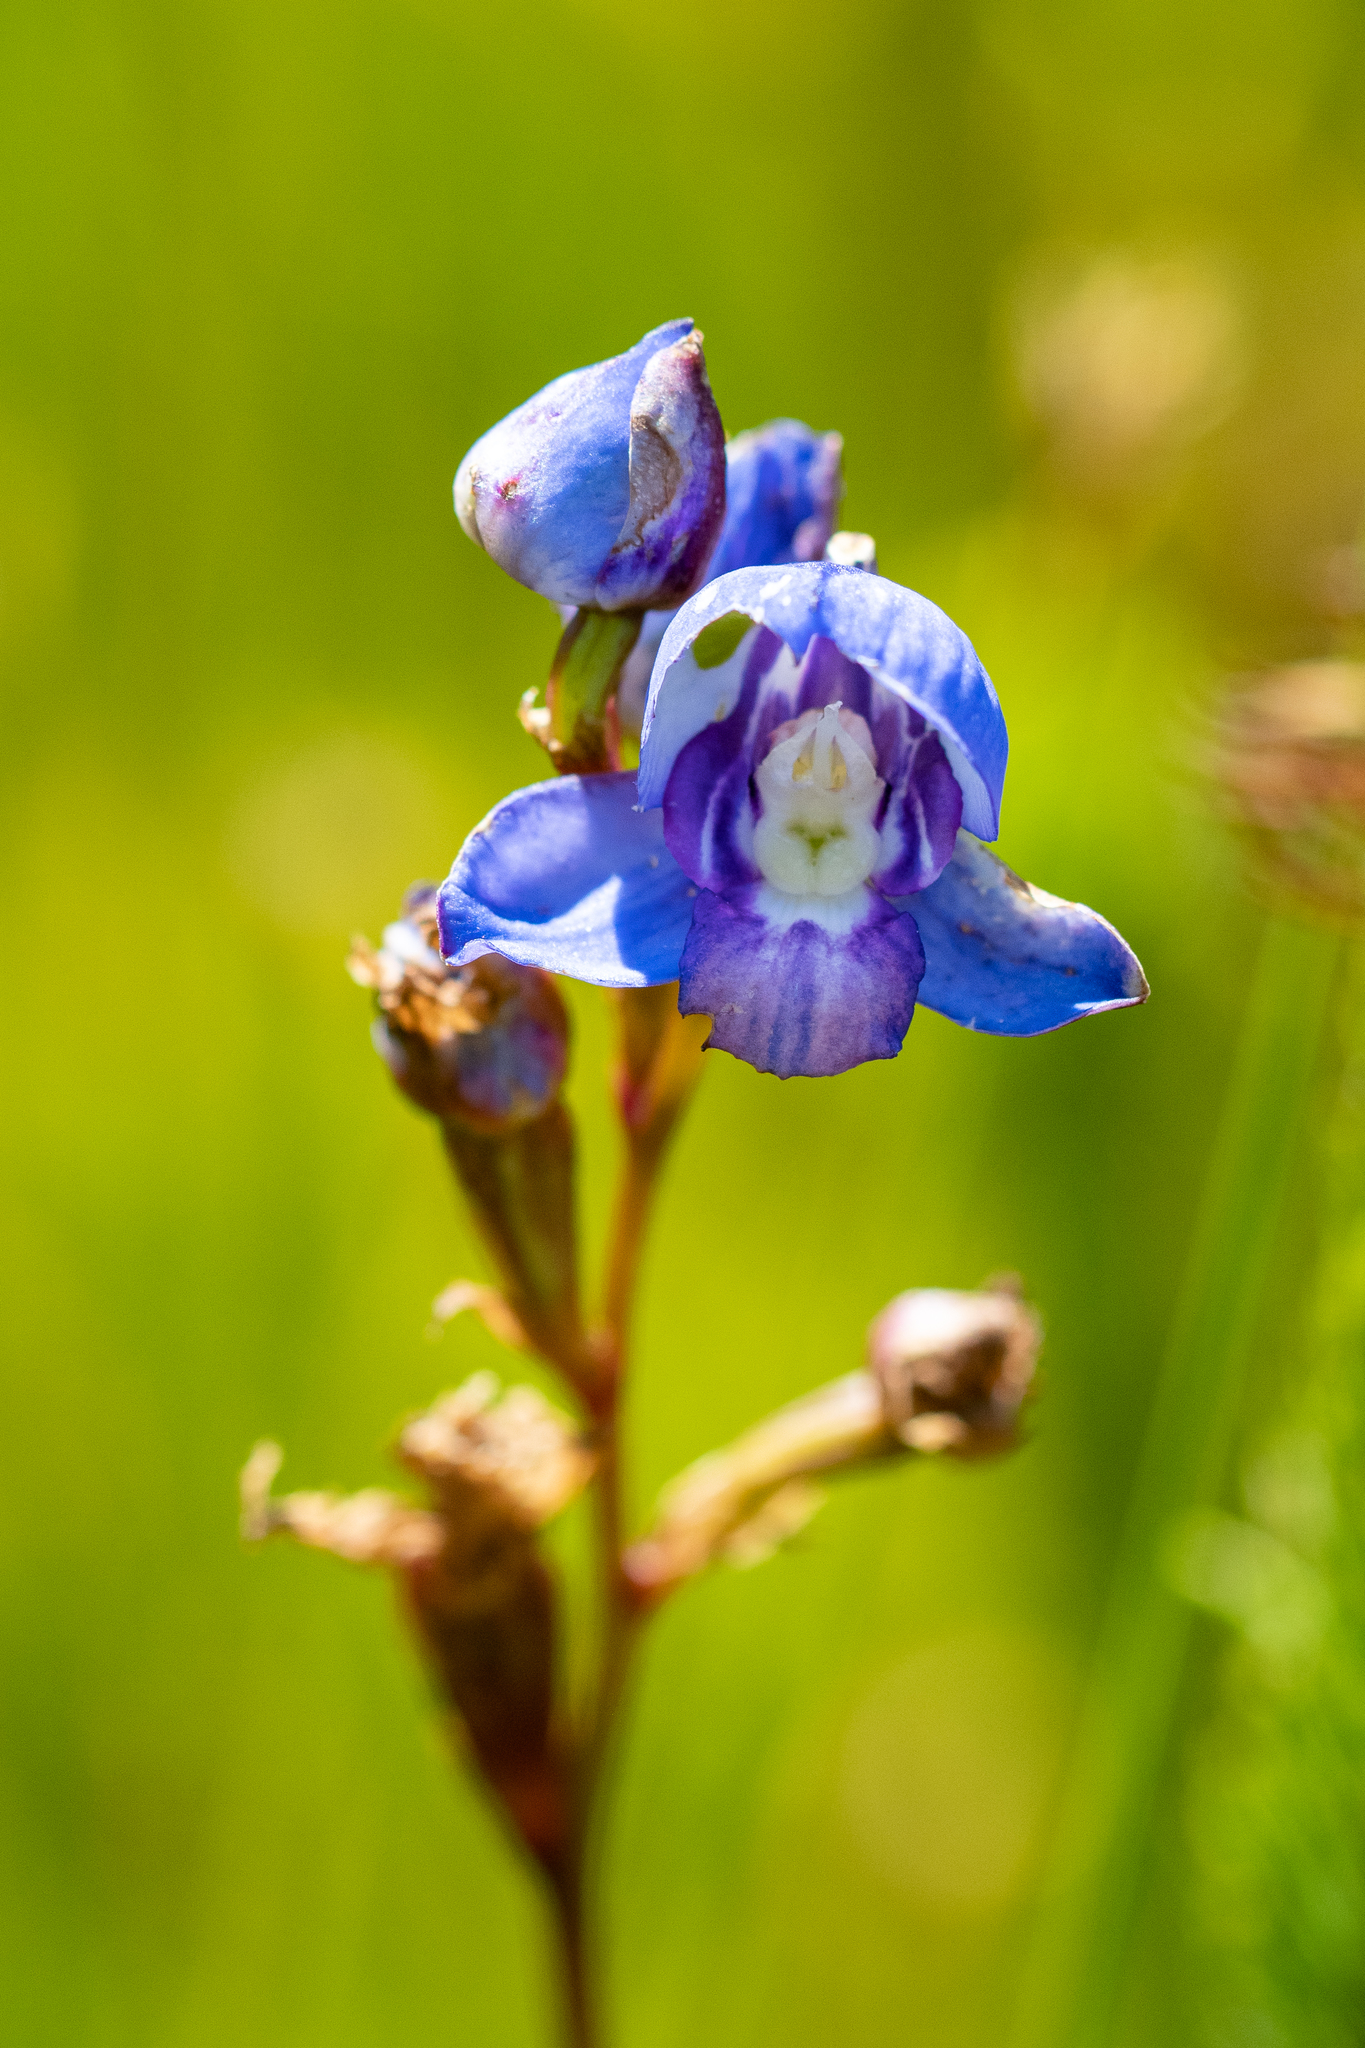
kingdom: Plantae
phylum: Tracheophyta
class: Liliopsida
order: Asparagales
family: Orchidaceae
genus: Disa
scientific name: Disa graminifolia
